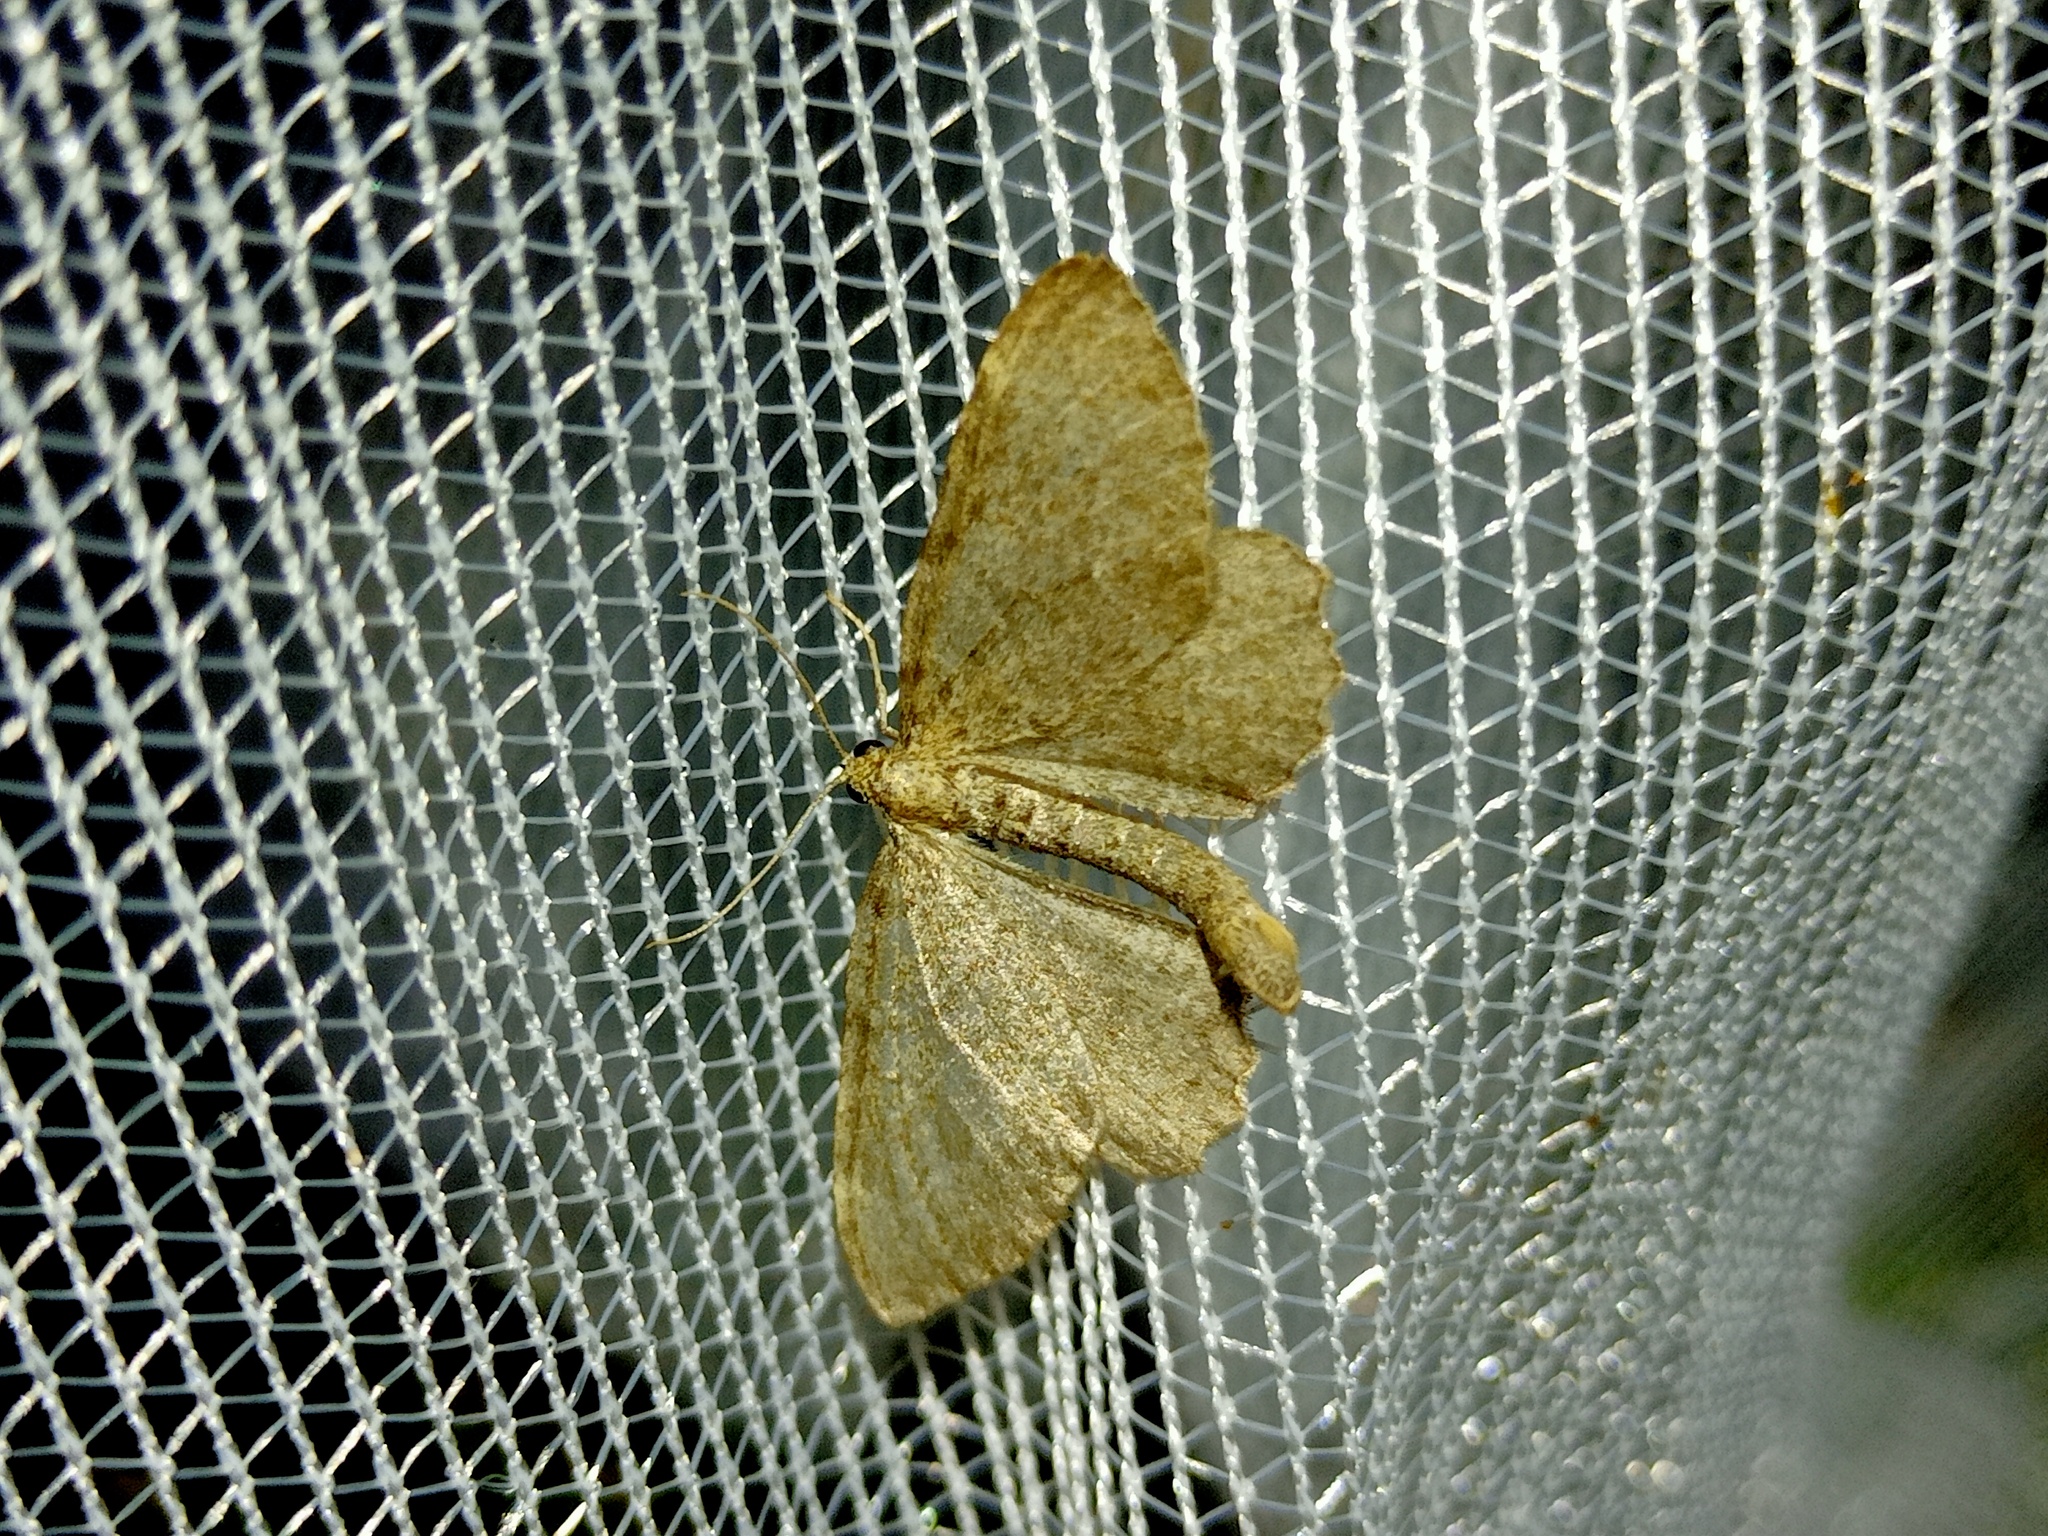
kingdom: Animalia
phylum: Arthropoda
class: Insecta
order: Lepidoptera
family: Geometridae
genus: Philereme
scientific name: Philereme vetulata
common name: Brown scallop
